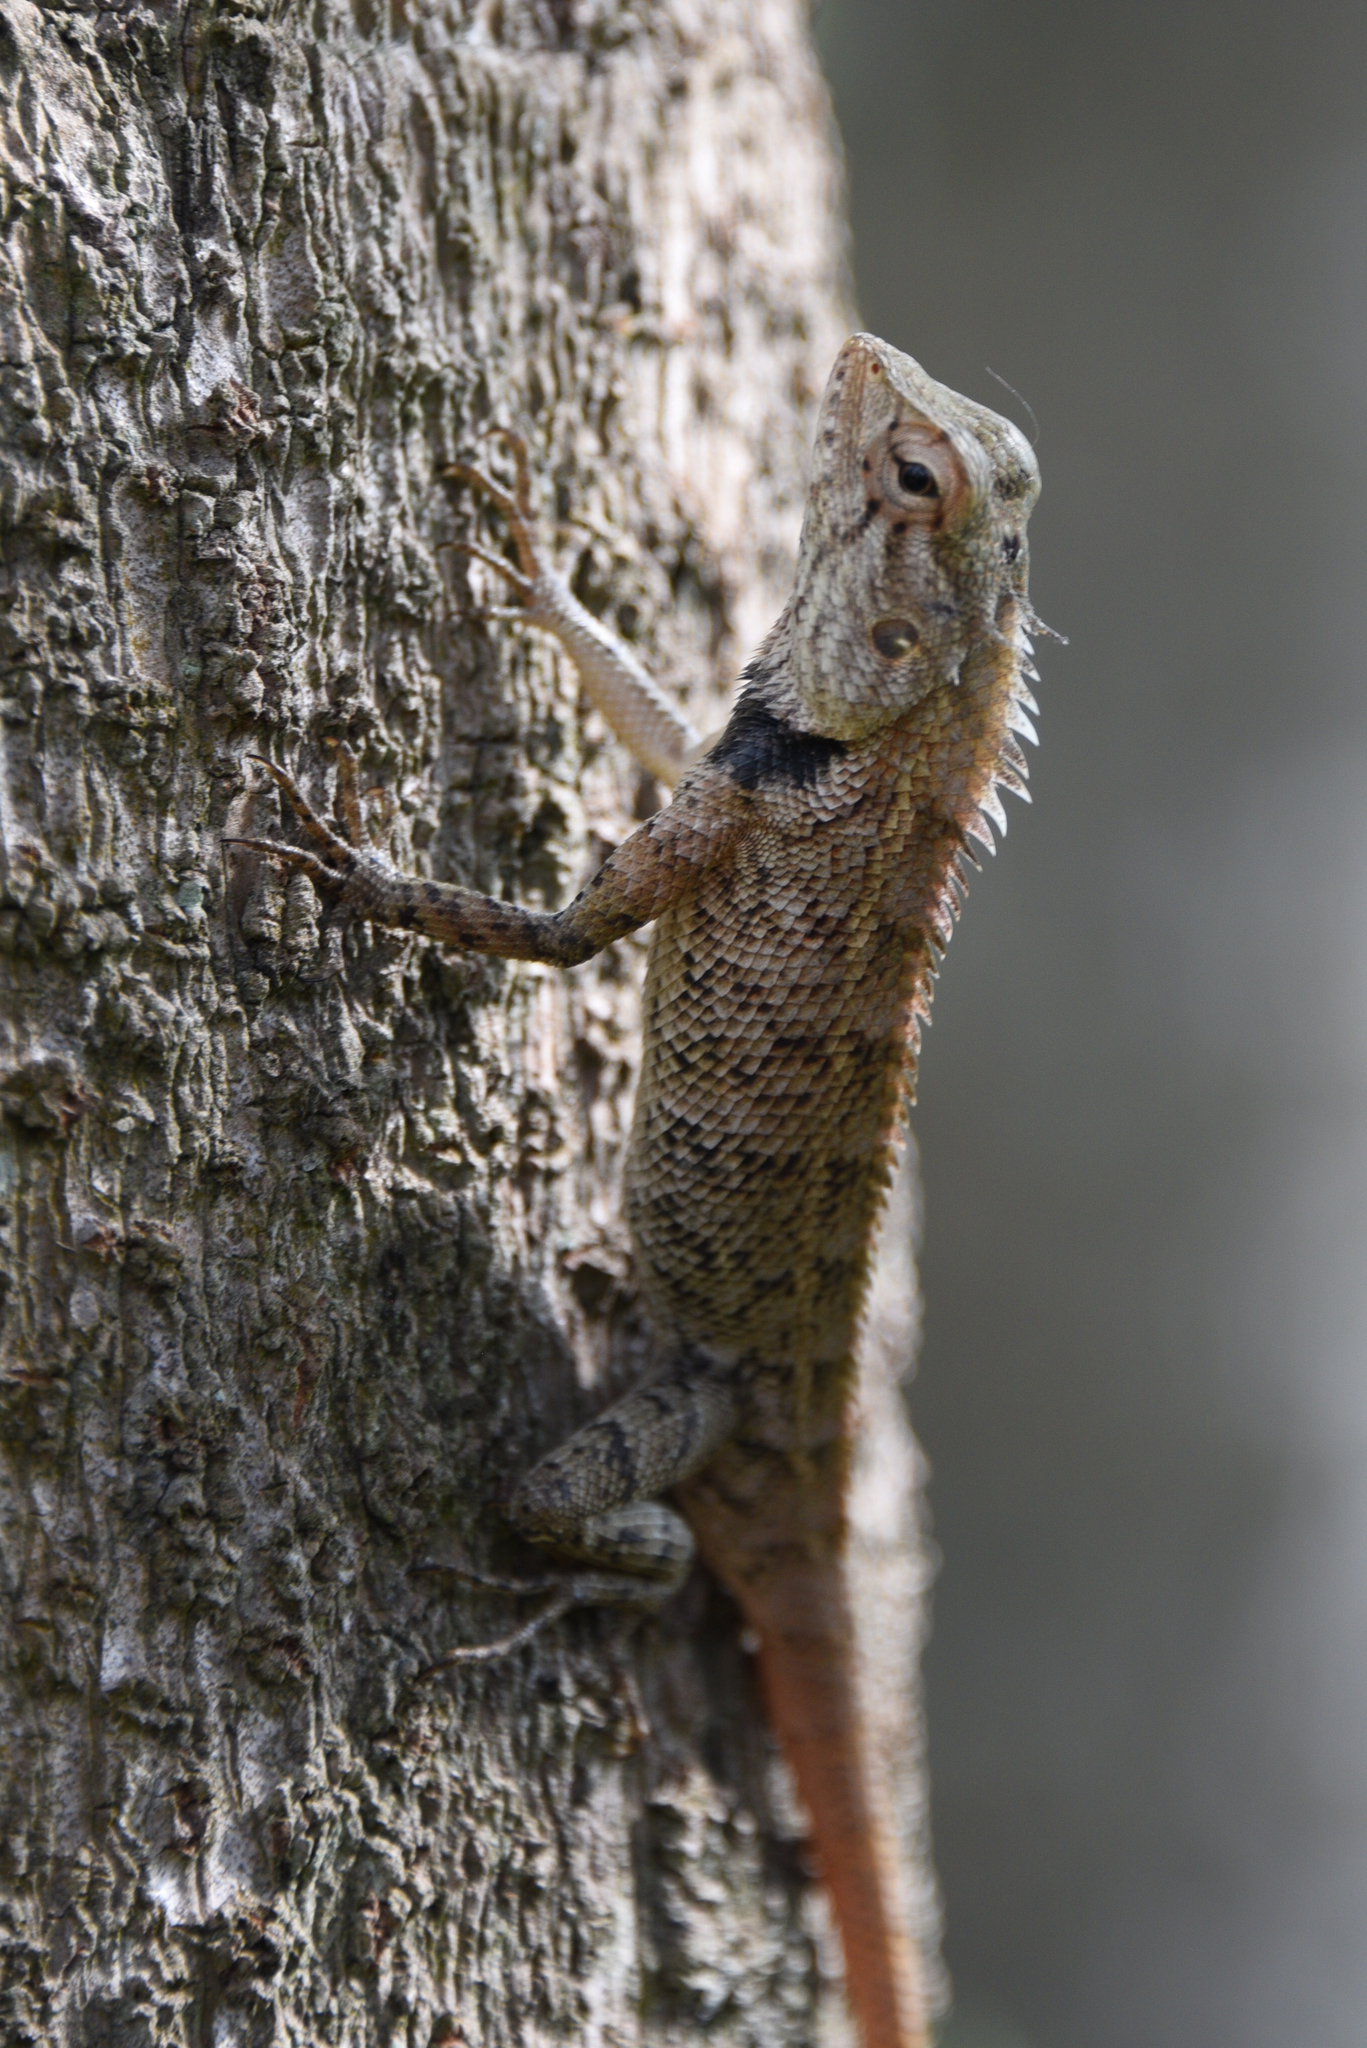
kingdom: Animalia
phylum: Chordata
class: Squamata
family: Agamidae
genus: Calotes
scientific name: Calotes versicolor
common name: Oriental garden lizard
